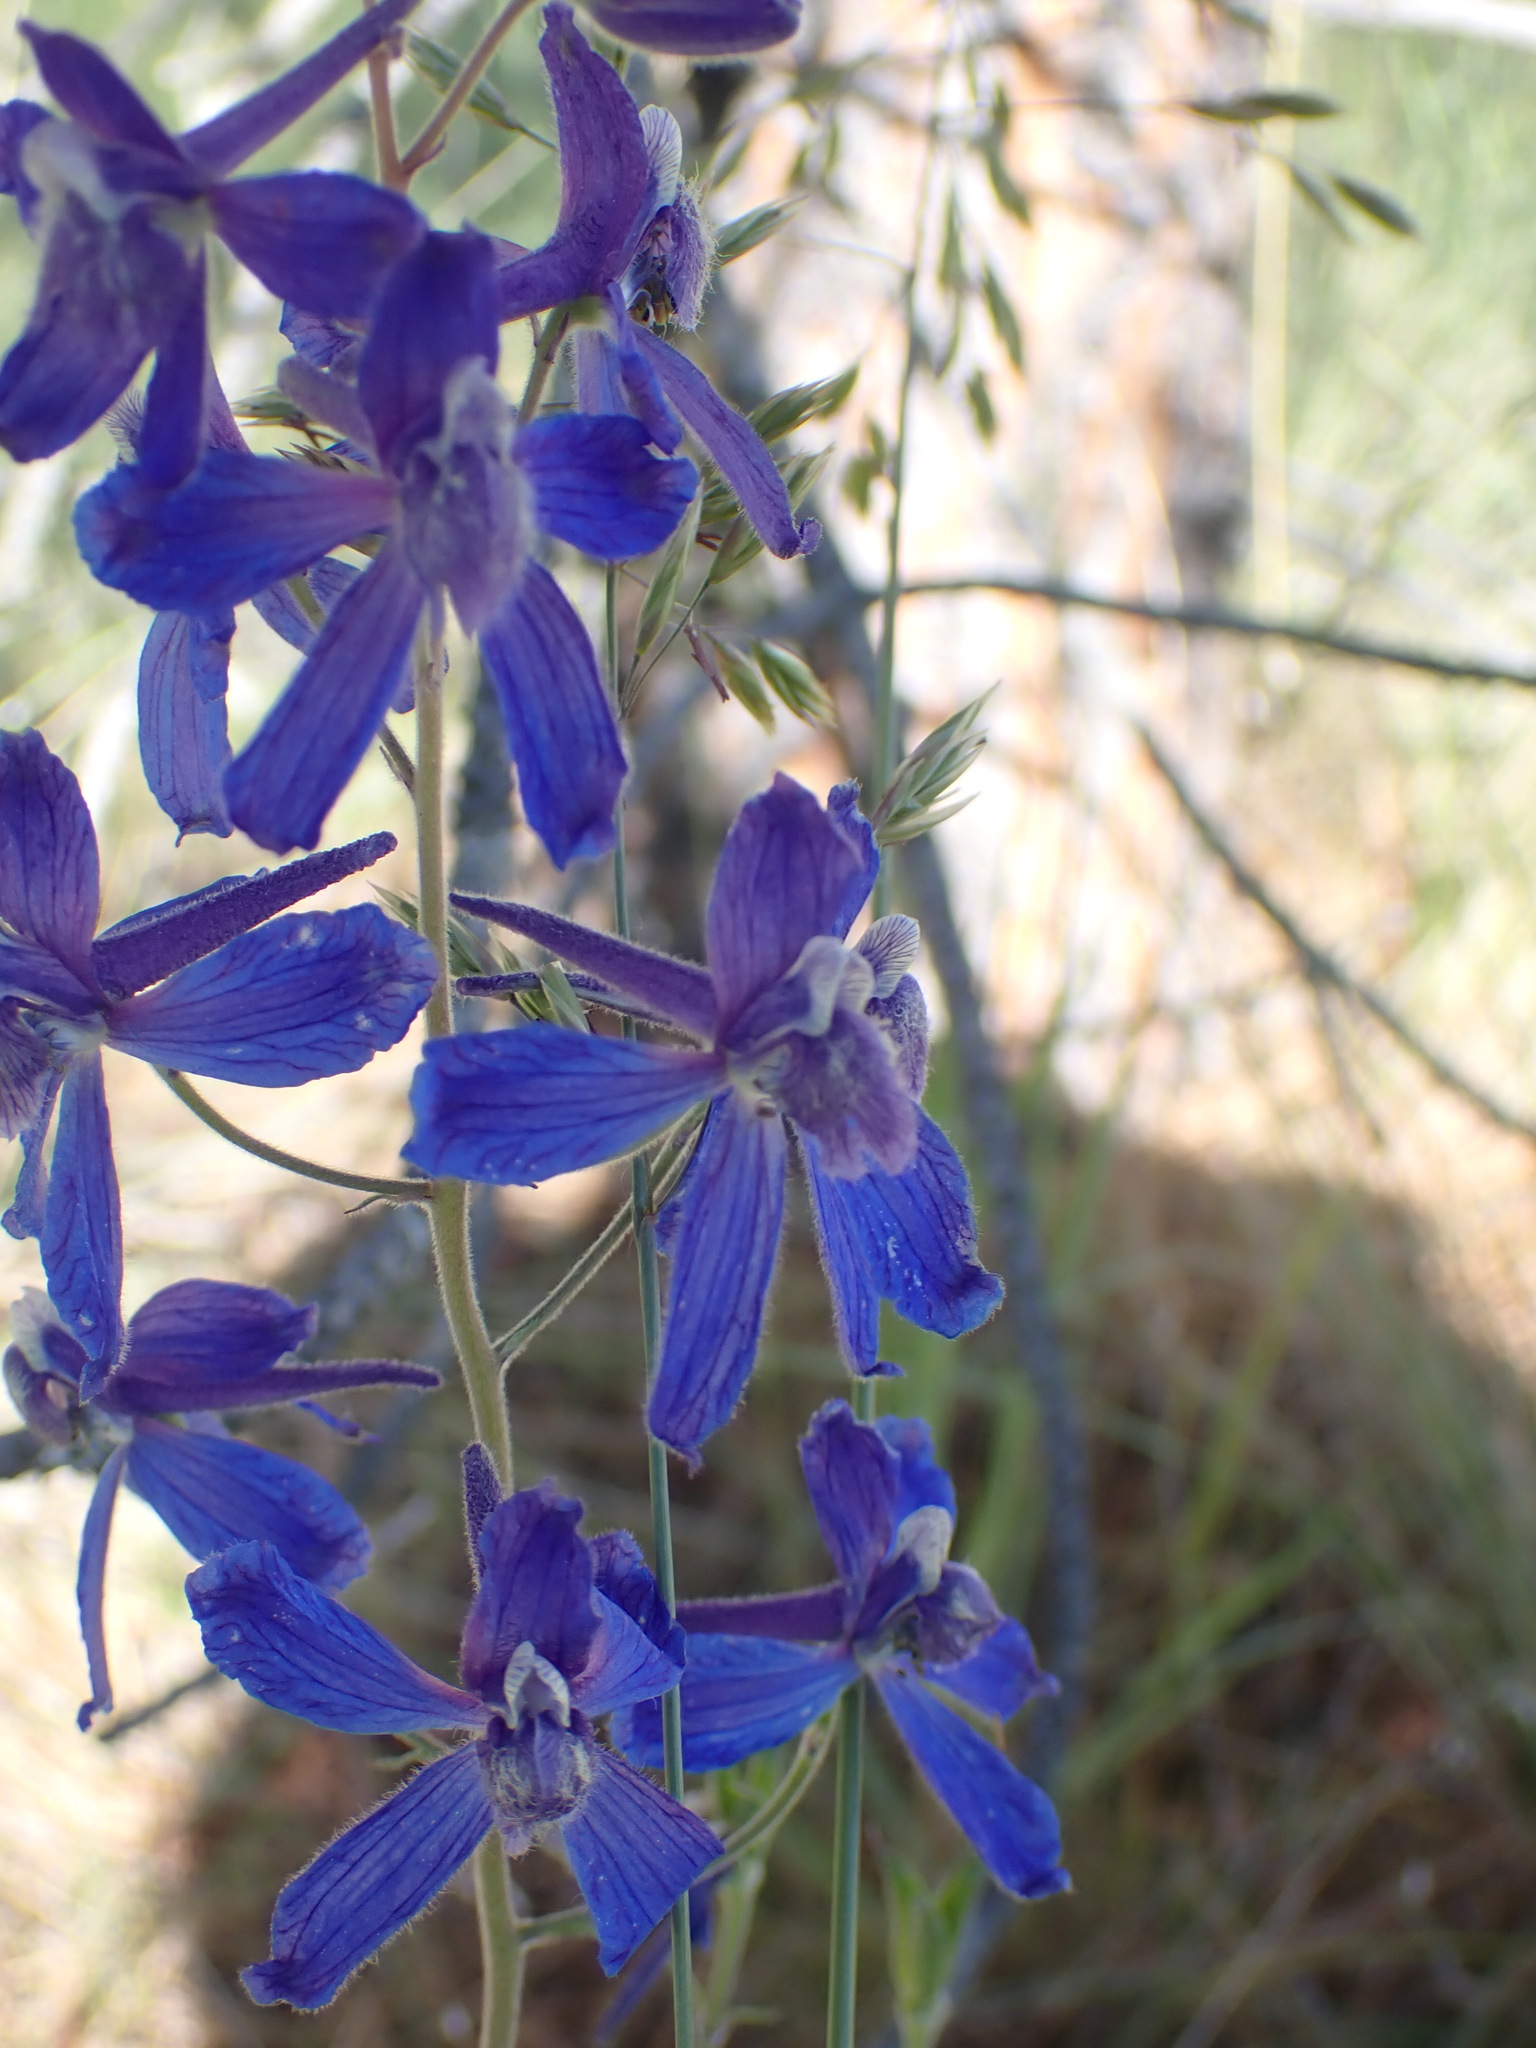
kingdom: Plantae
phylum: Tracheophyta
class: Magnoliopsida
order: Ranunculales
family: Ranunculaceae
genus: Delphinium
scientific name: Delphinium nuttallianum
